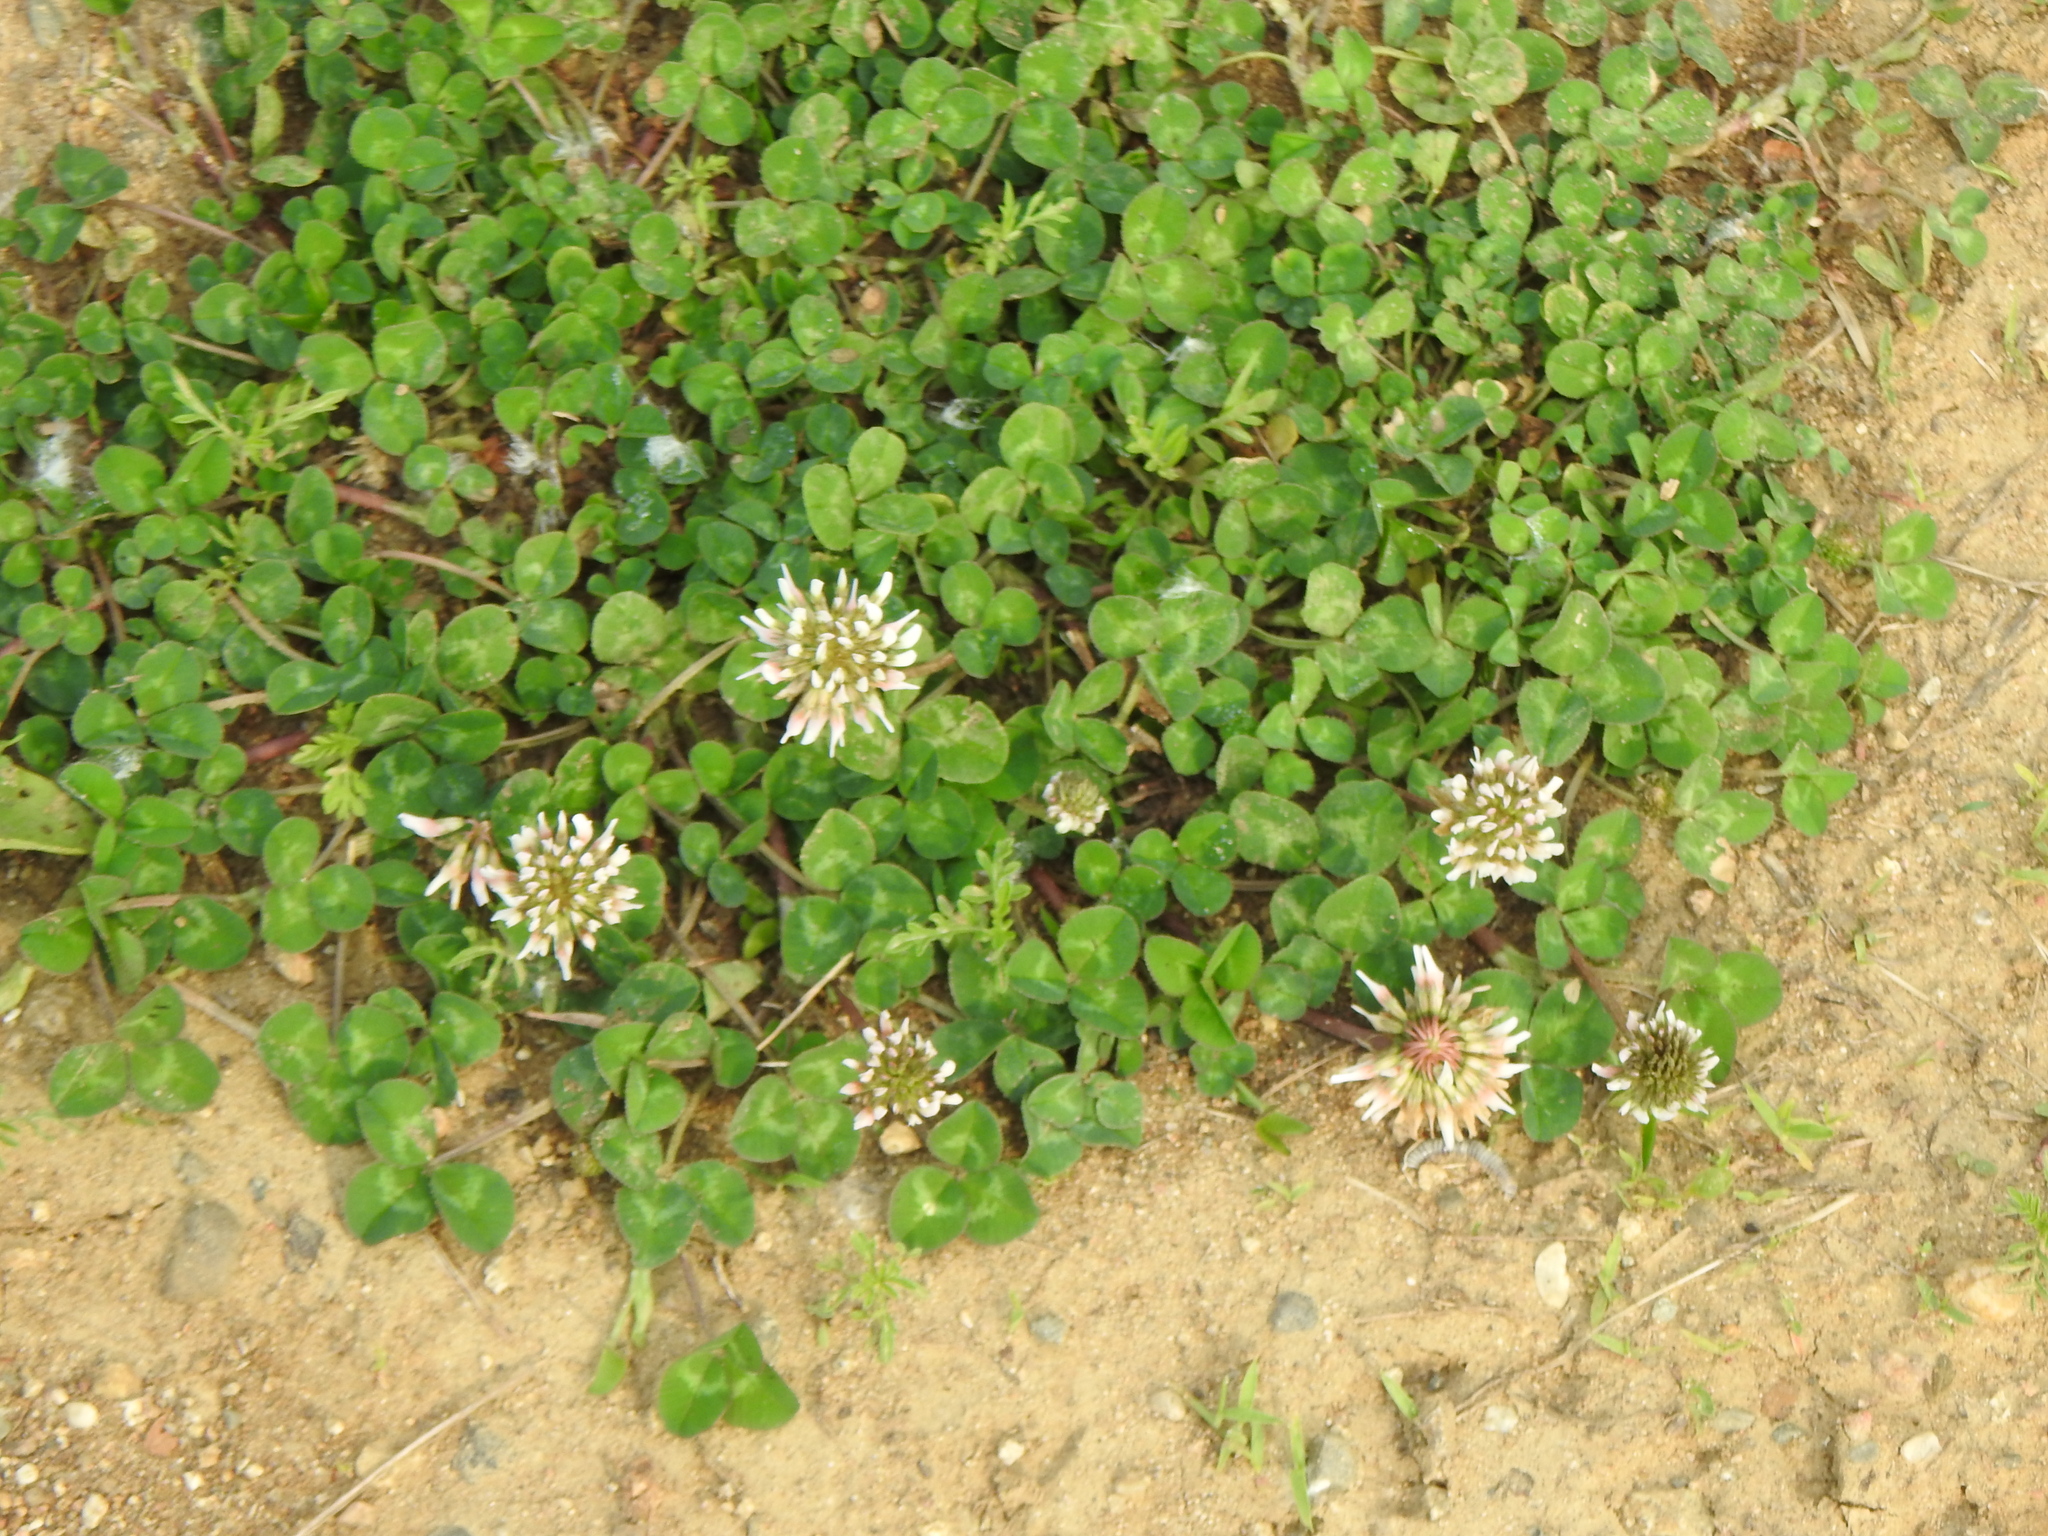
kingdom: Plantae
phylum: Tracheophyta
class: Magnoliopsida
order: Fabales
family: Fabaceae
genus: Trifolium
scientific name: Trifolium repens
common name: White clover
